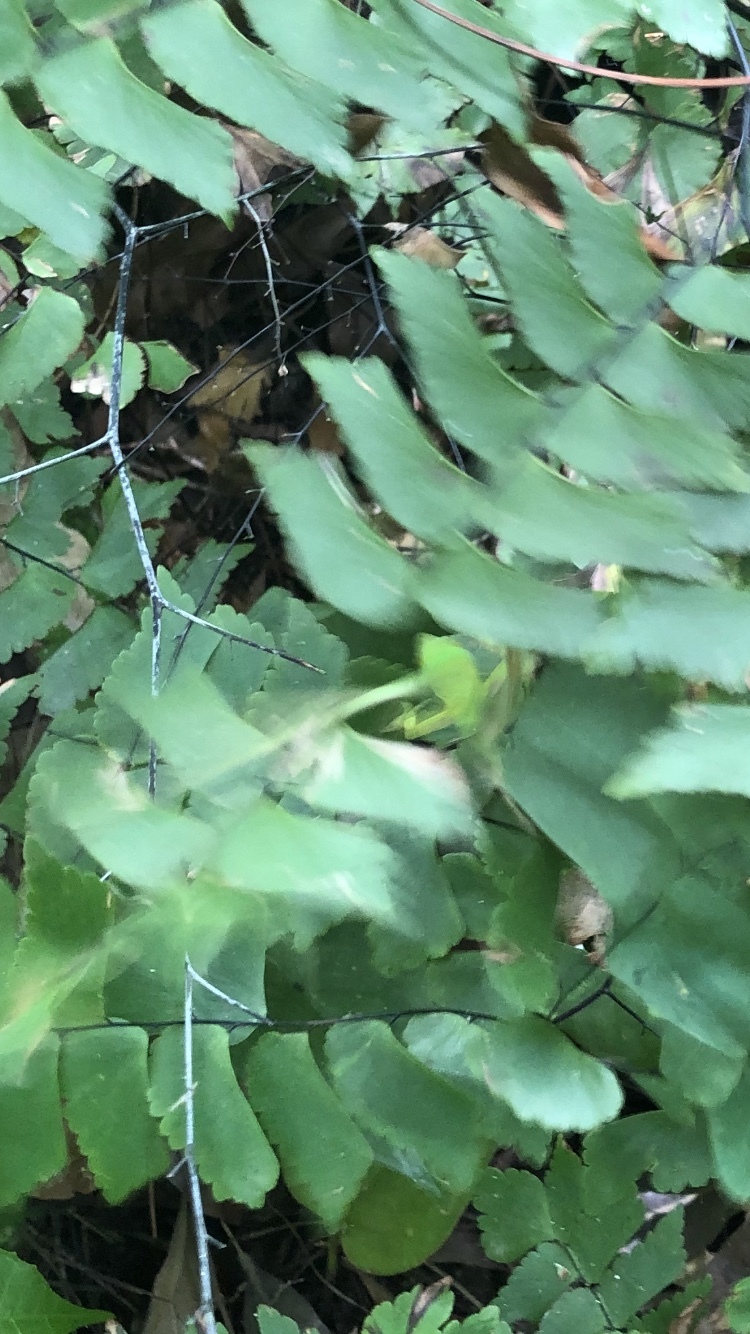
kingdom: Animalia
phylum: Chordata
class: Squamata
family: Dactyloidae
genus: Anolis
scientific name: Anolis allisoni
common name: Allison's anole
